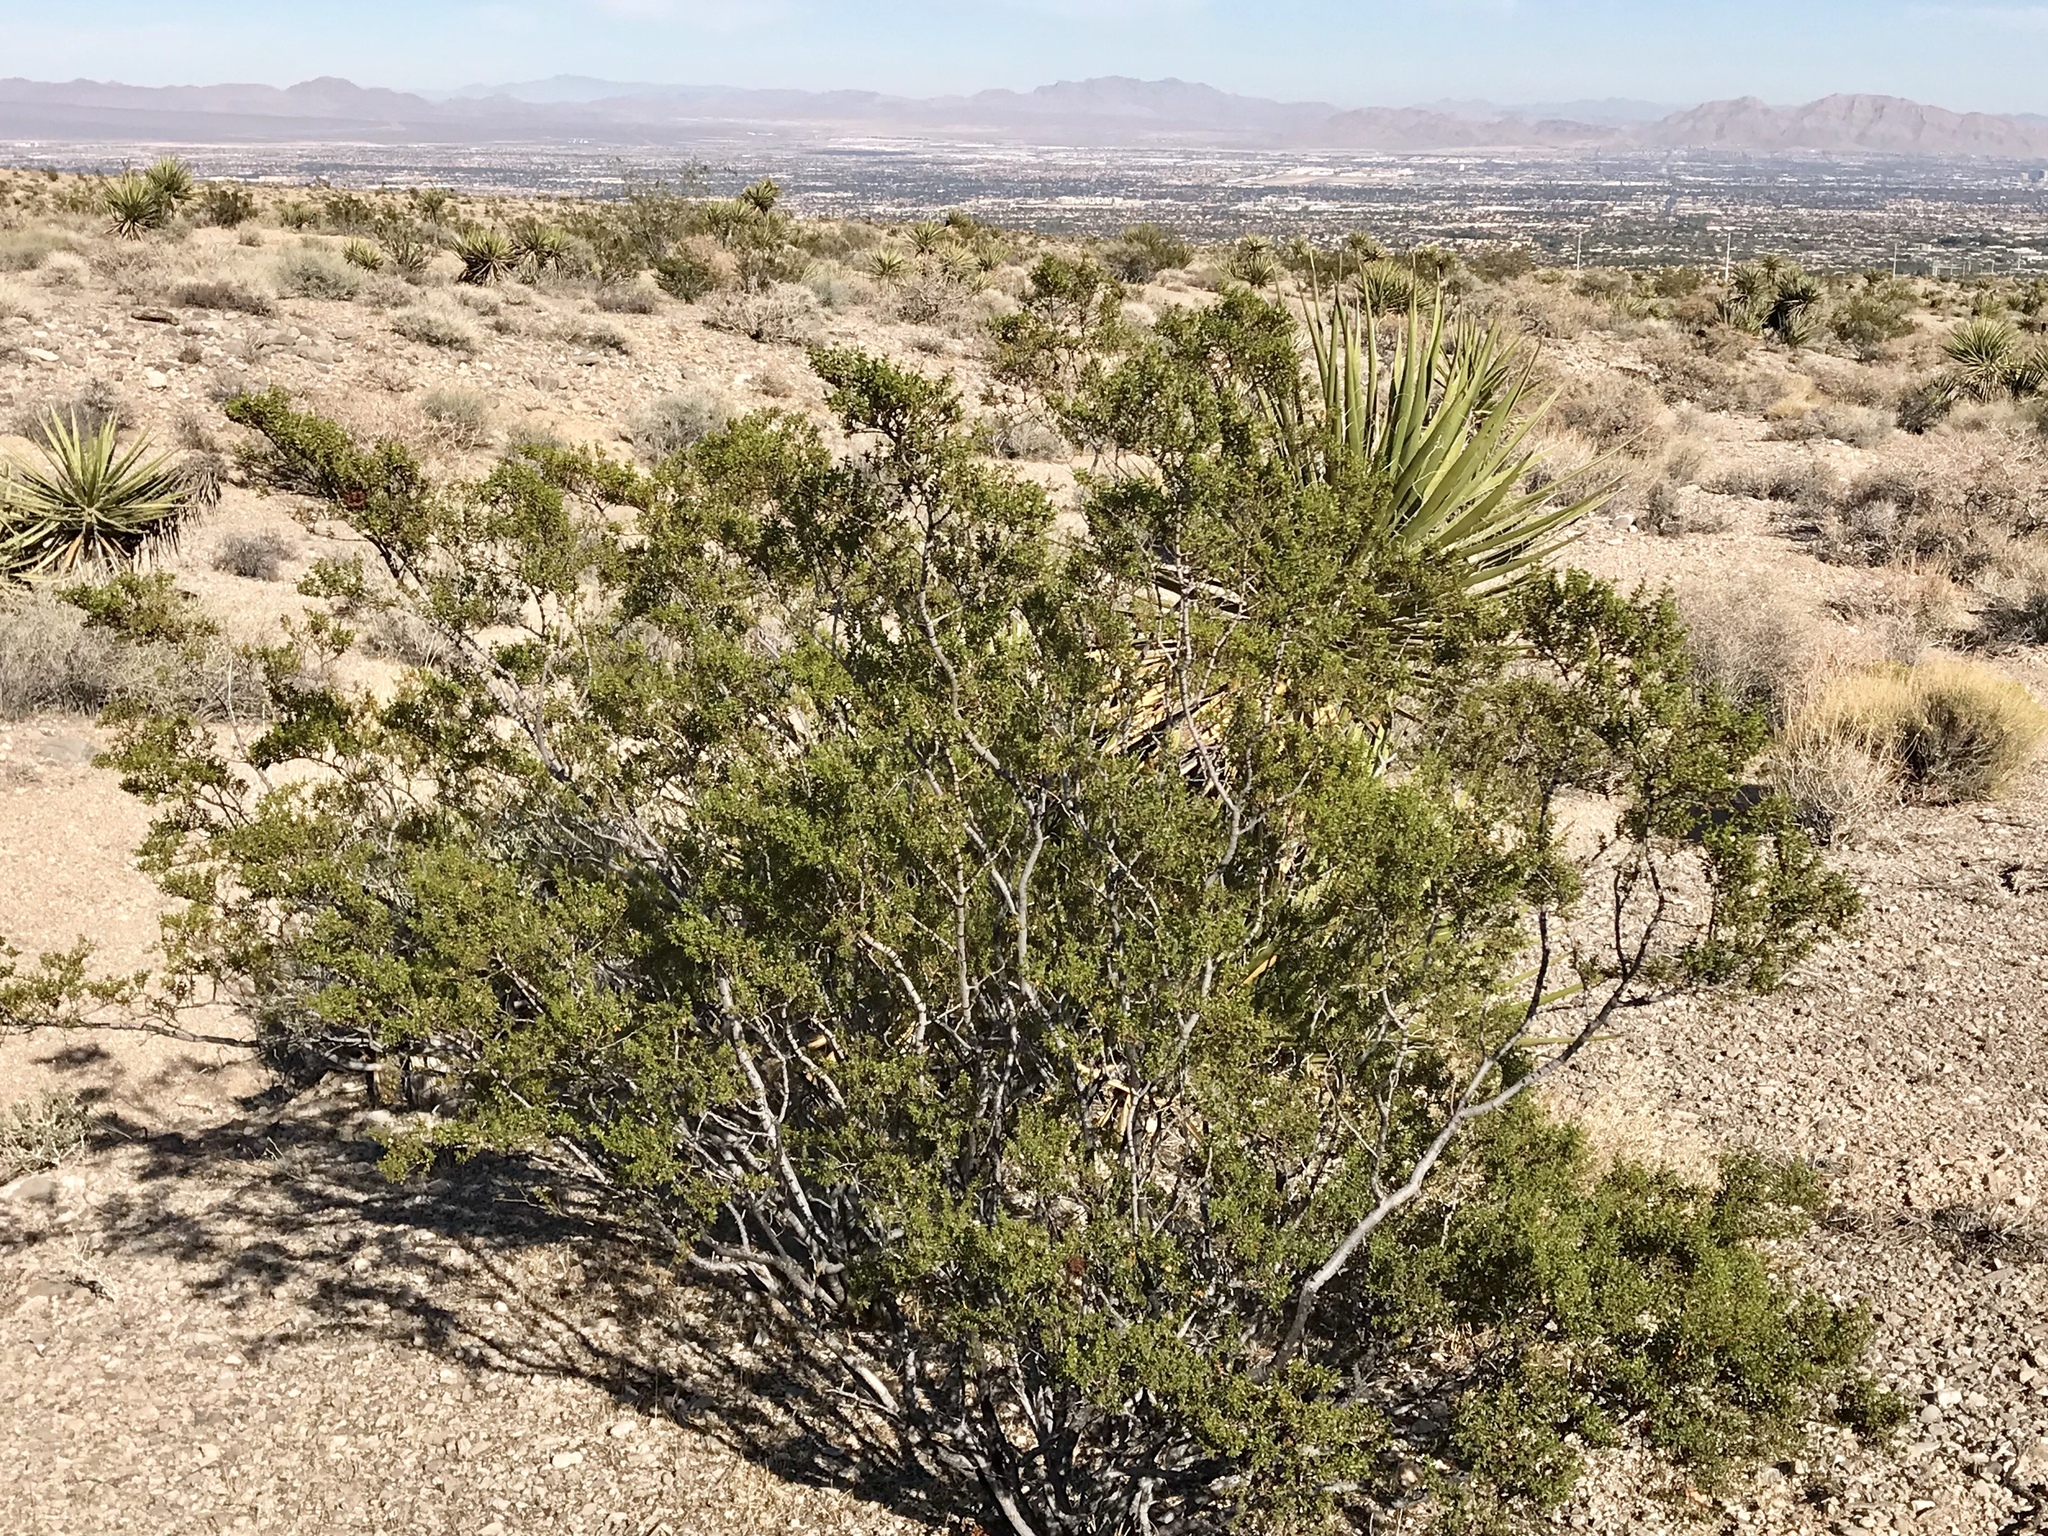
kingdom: Plantae
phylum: Tracheophyta
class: Magnoliopsida
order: Zygophyllales
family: Zygophyllaceae
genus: Larrea
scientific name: Larrea tridentata
